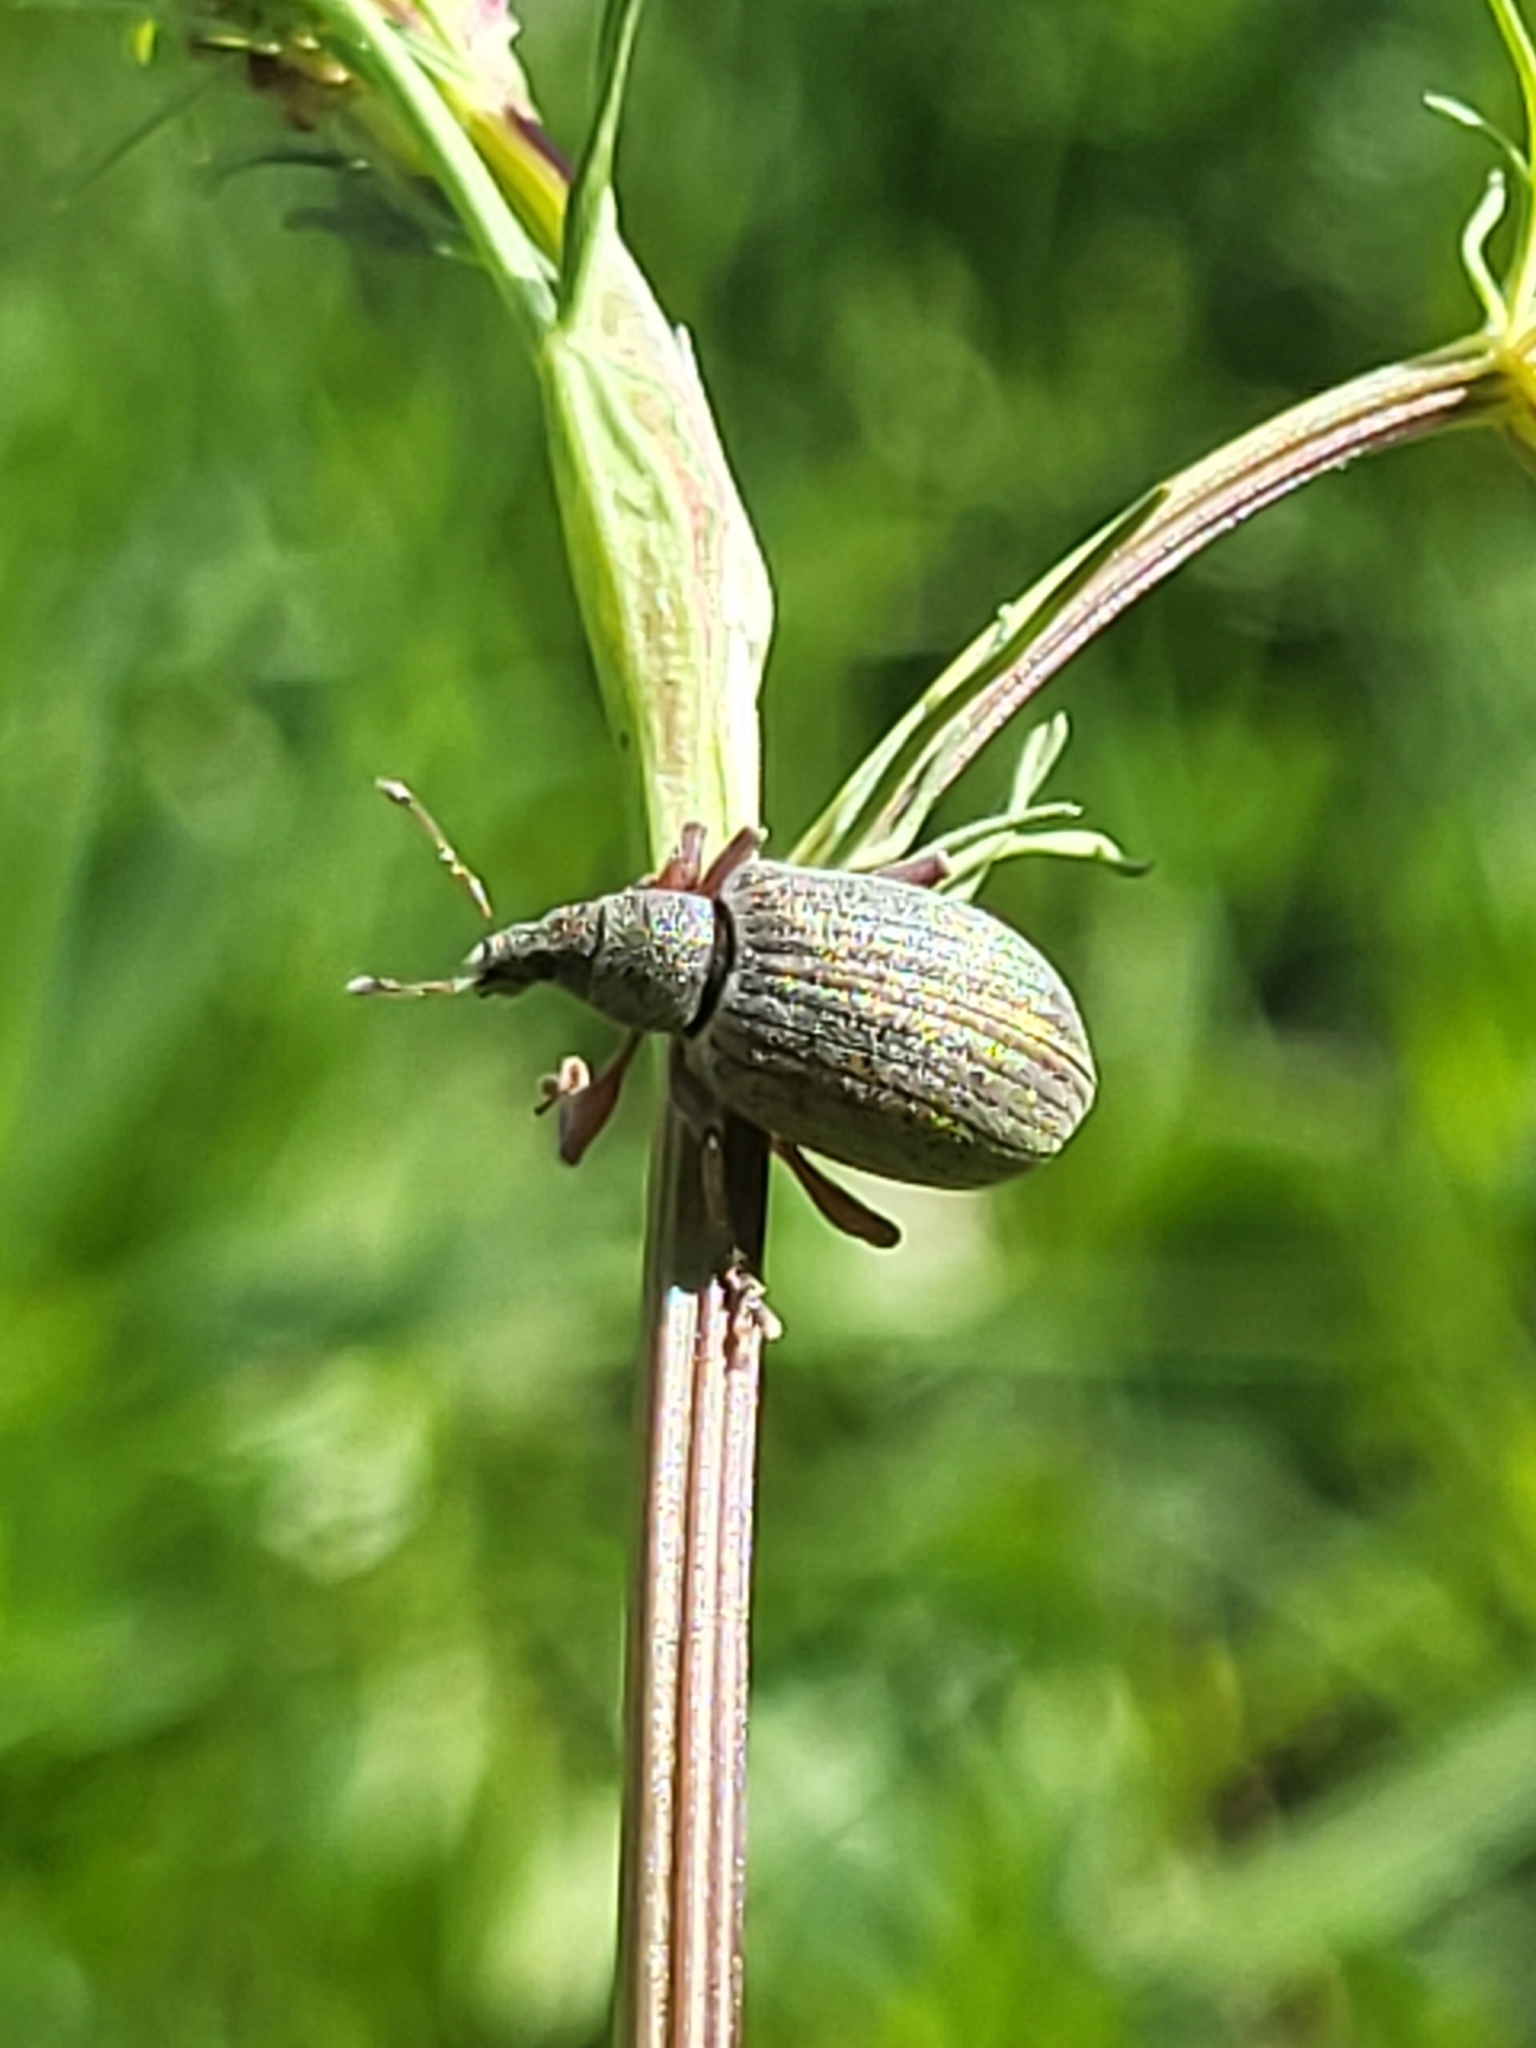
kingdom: Animalia
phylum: Arthropoda
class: Insecta
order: Coleoptera
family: Curculionidae
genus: Polydrusus
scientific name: Polydrusus mollis
